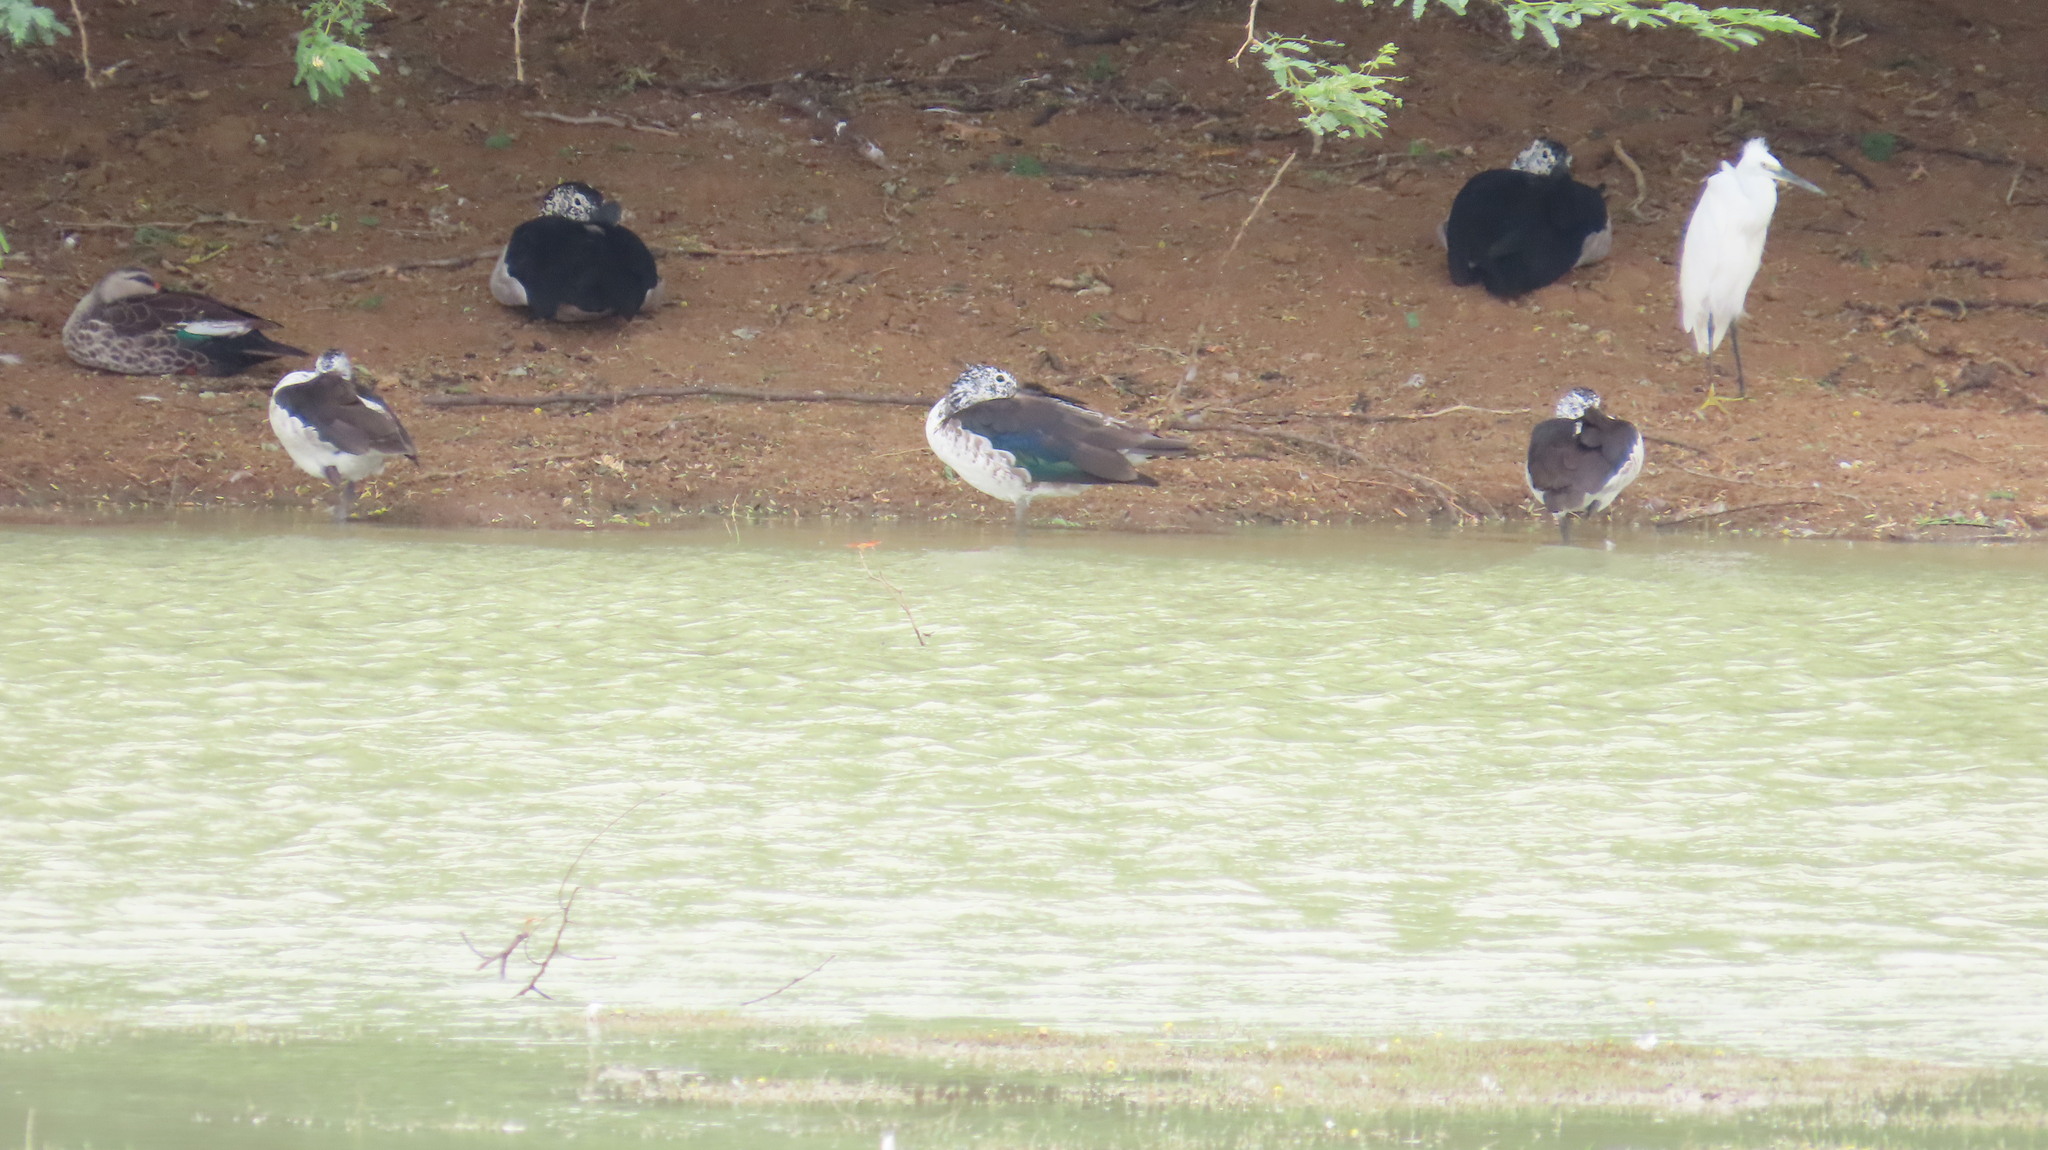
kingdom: Animalia
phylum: Chordata
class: Aves
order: Pelecaniformes
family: Ardeidae
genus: Egretta
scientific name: Egretta garzetta
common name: Little egret
